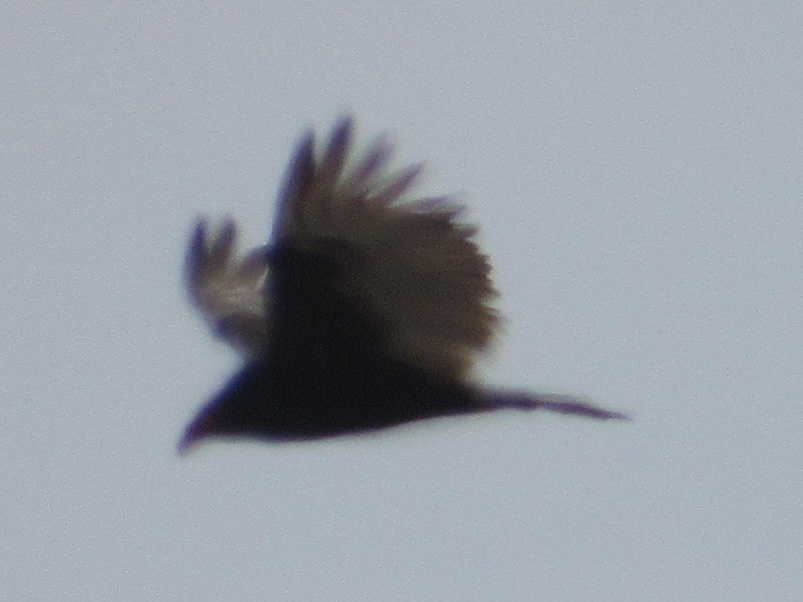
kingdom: Animalia
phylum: Chordata
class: Aves
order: Accipitriformes
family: Cathartidae
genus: Cathartes
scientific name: Cathartes aura
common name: Turkey vulture
